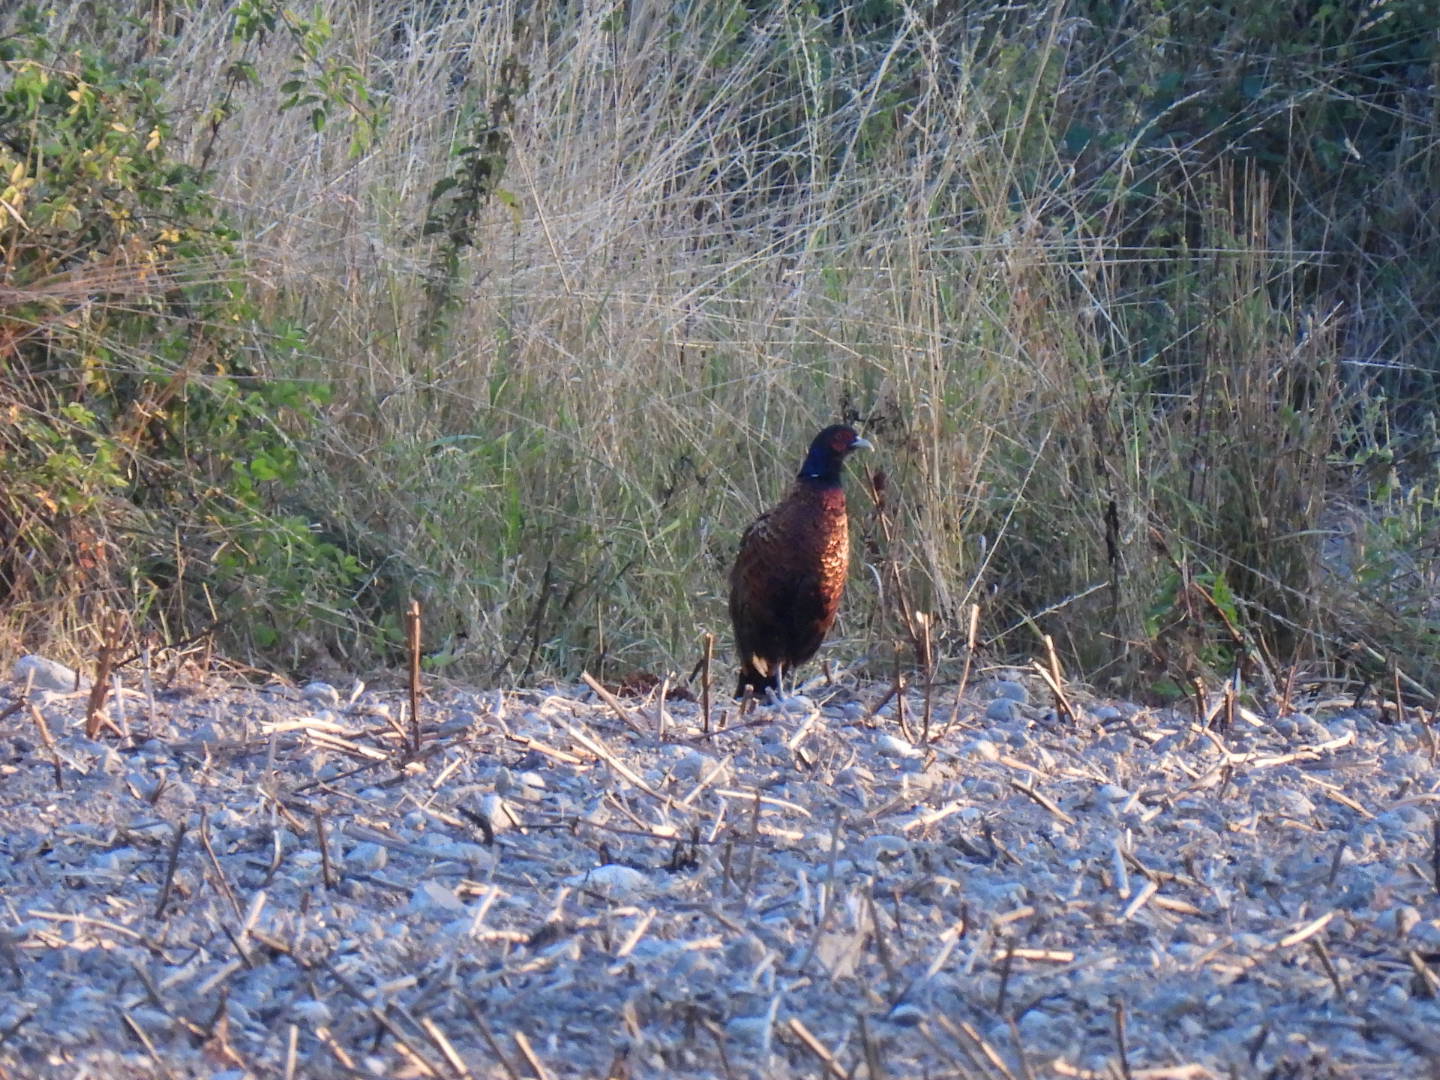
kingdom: Animalia
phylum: Chordata
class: Aves
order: Galliformes
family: Phasianidae
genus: Phasianus
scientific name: Phasianus colchicus
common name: Common pheasant
